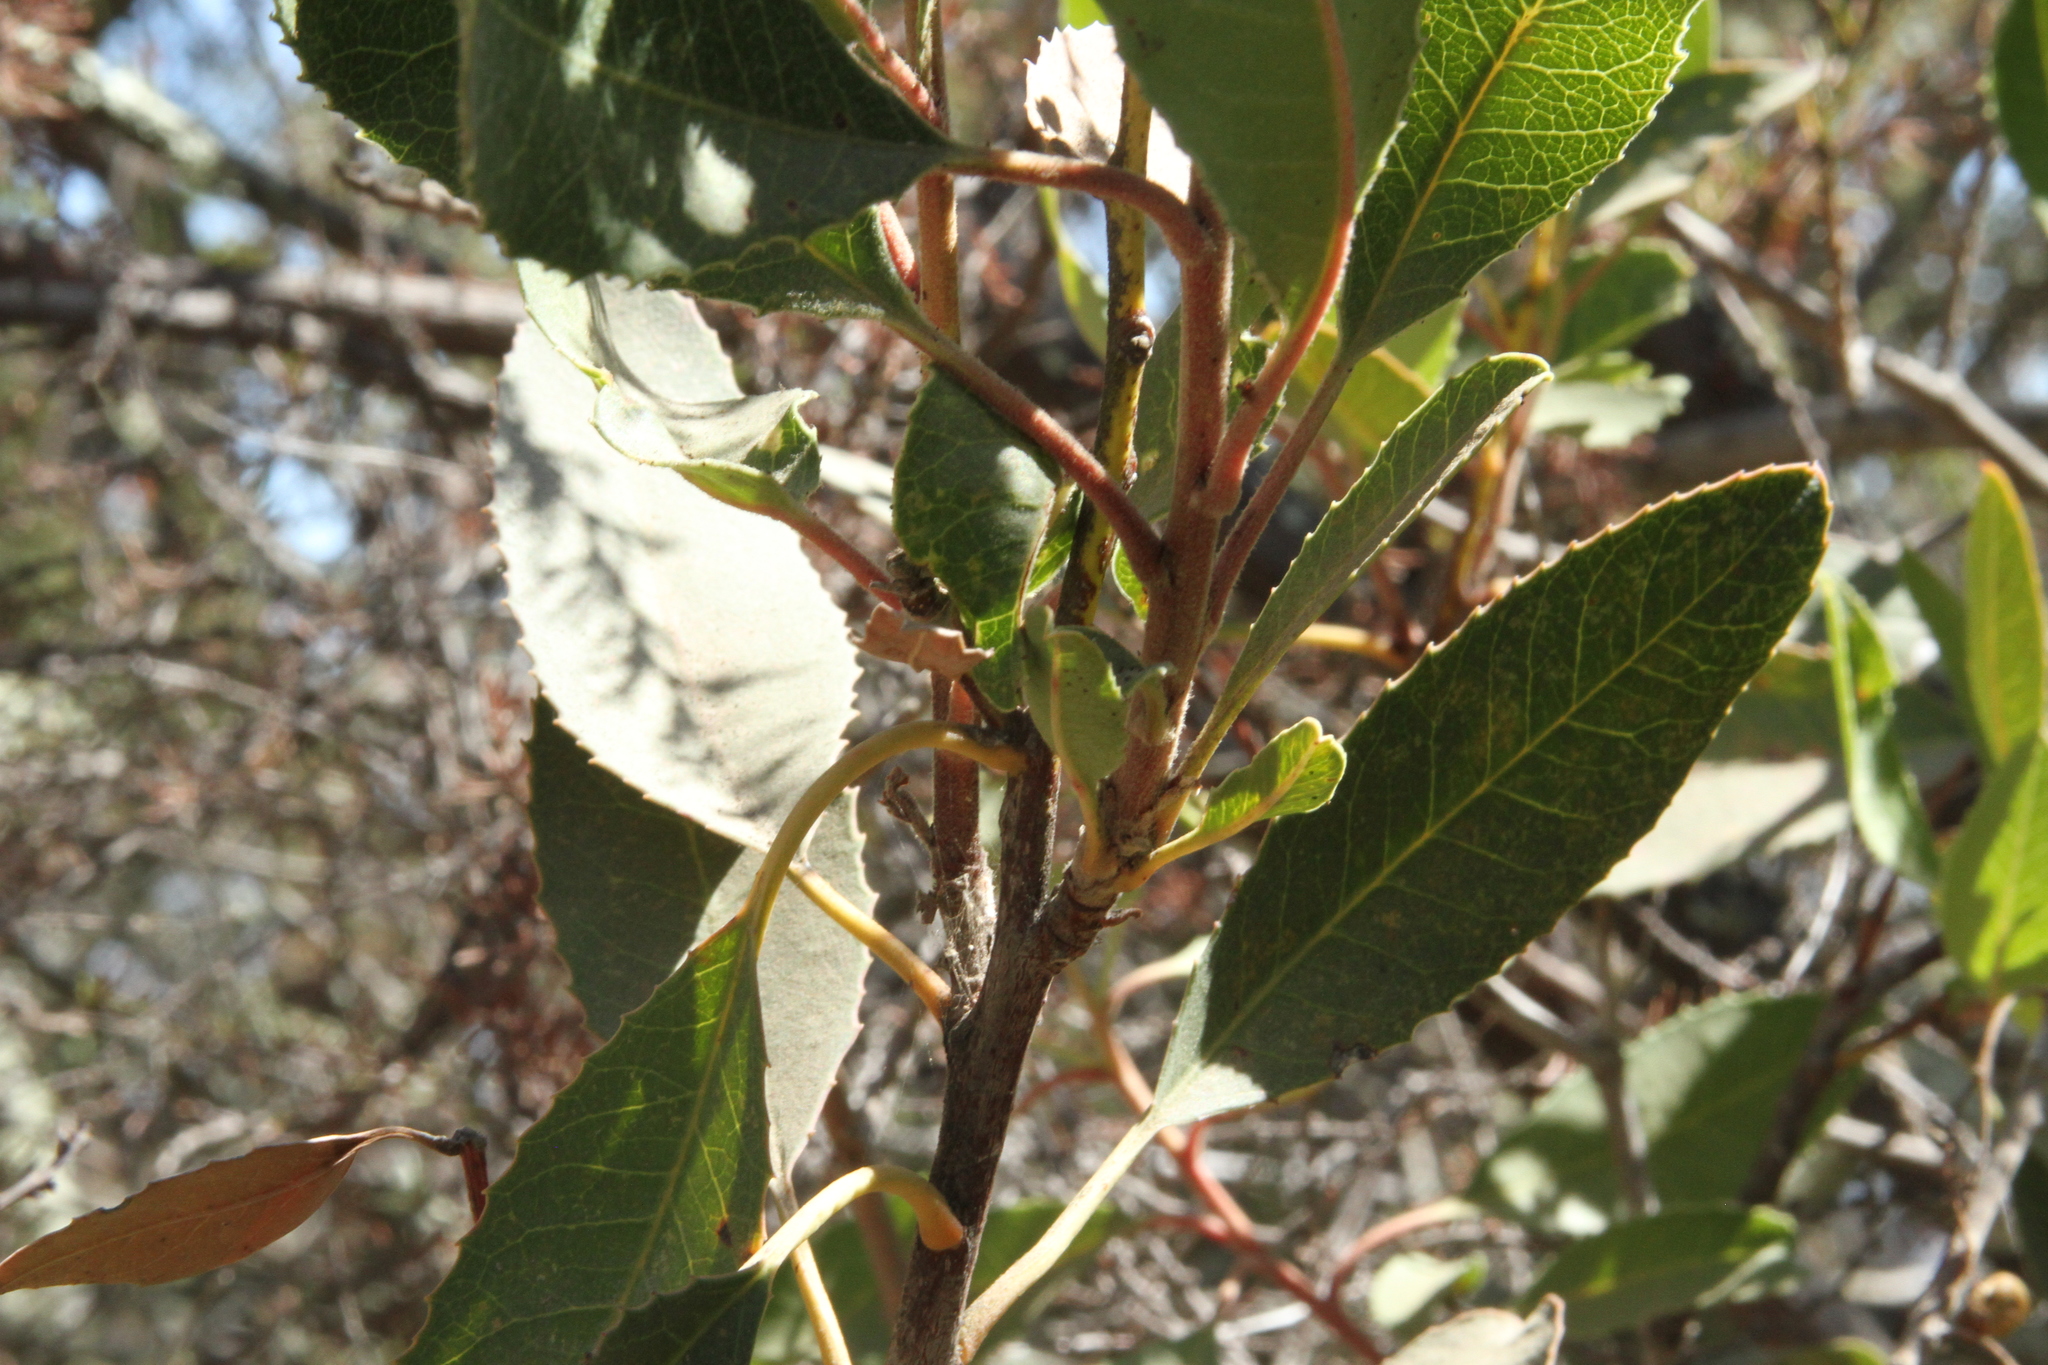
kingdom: Plantae
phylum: Tracheophyta
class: Magnoliopsida
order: Rosales
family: Rosaceae
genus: Heteromeles
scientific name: Heteromeles arbutifolia
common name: California-holly
